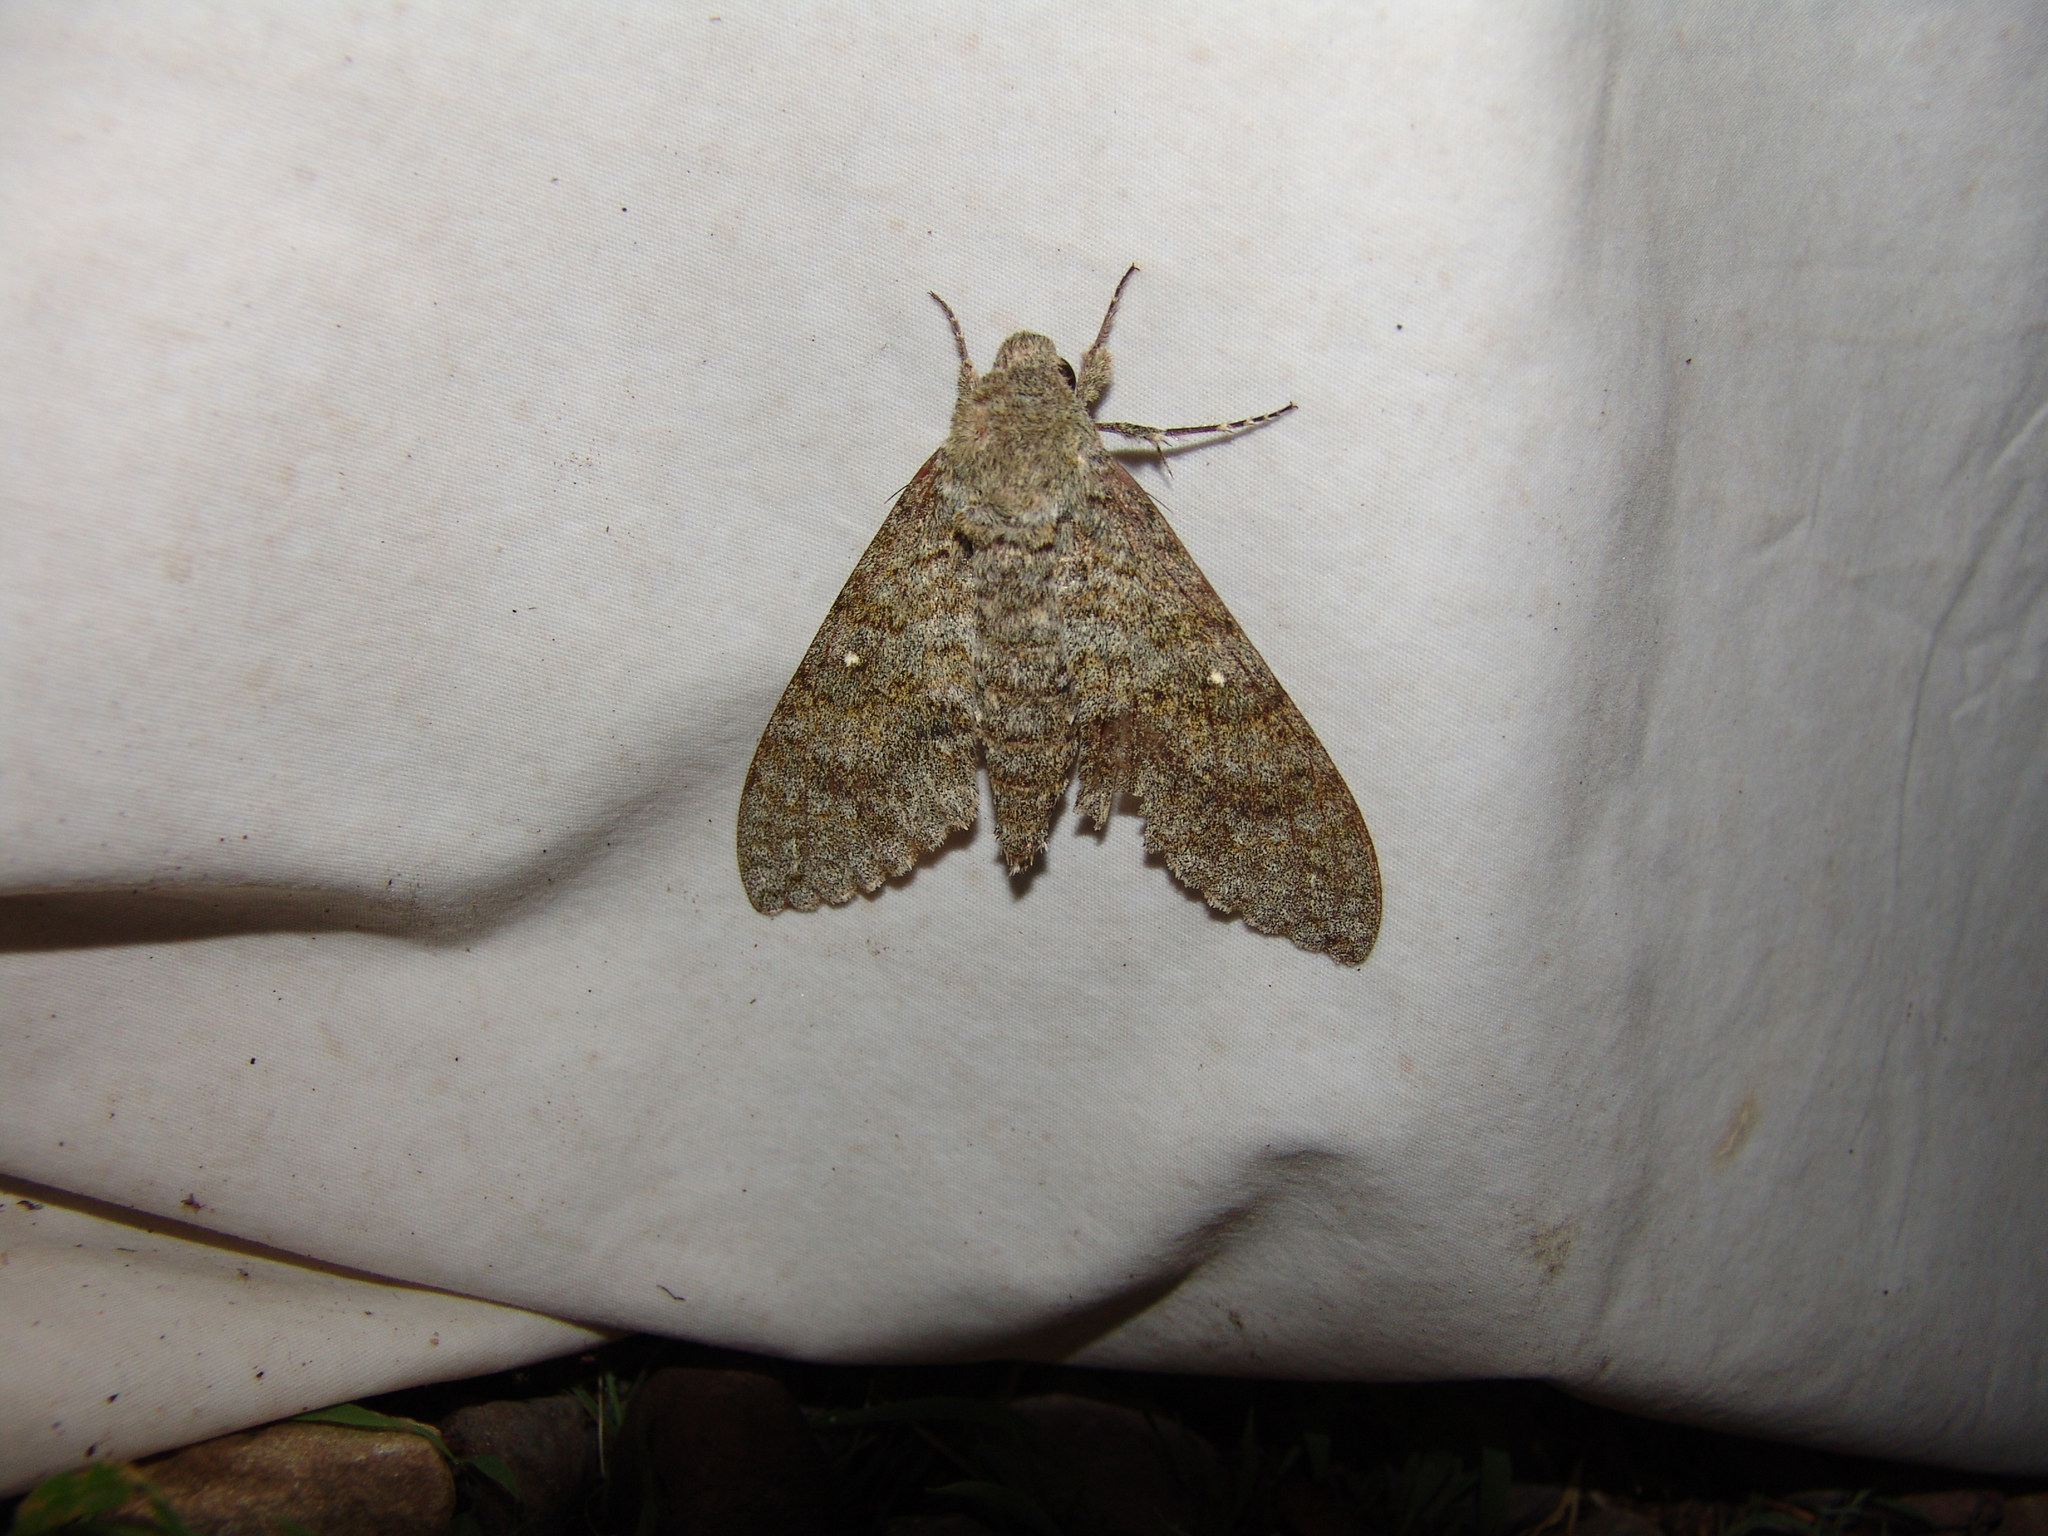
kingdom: Animalia
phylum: Arthropoda
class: Insecta
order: Lepidoptera
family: Sphingidae
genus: Manduca
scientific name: Manduca muscosa
